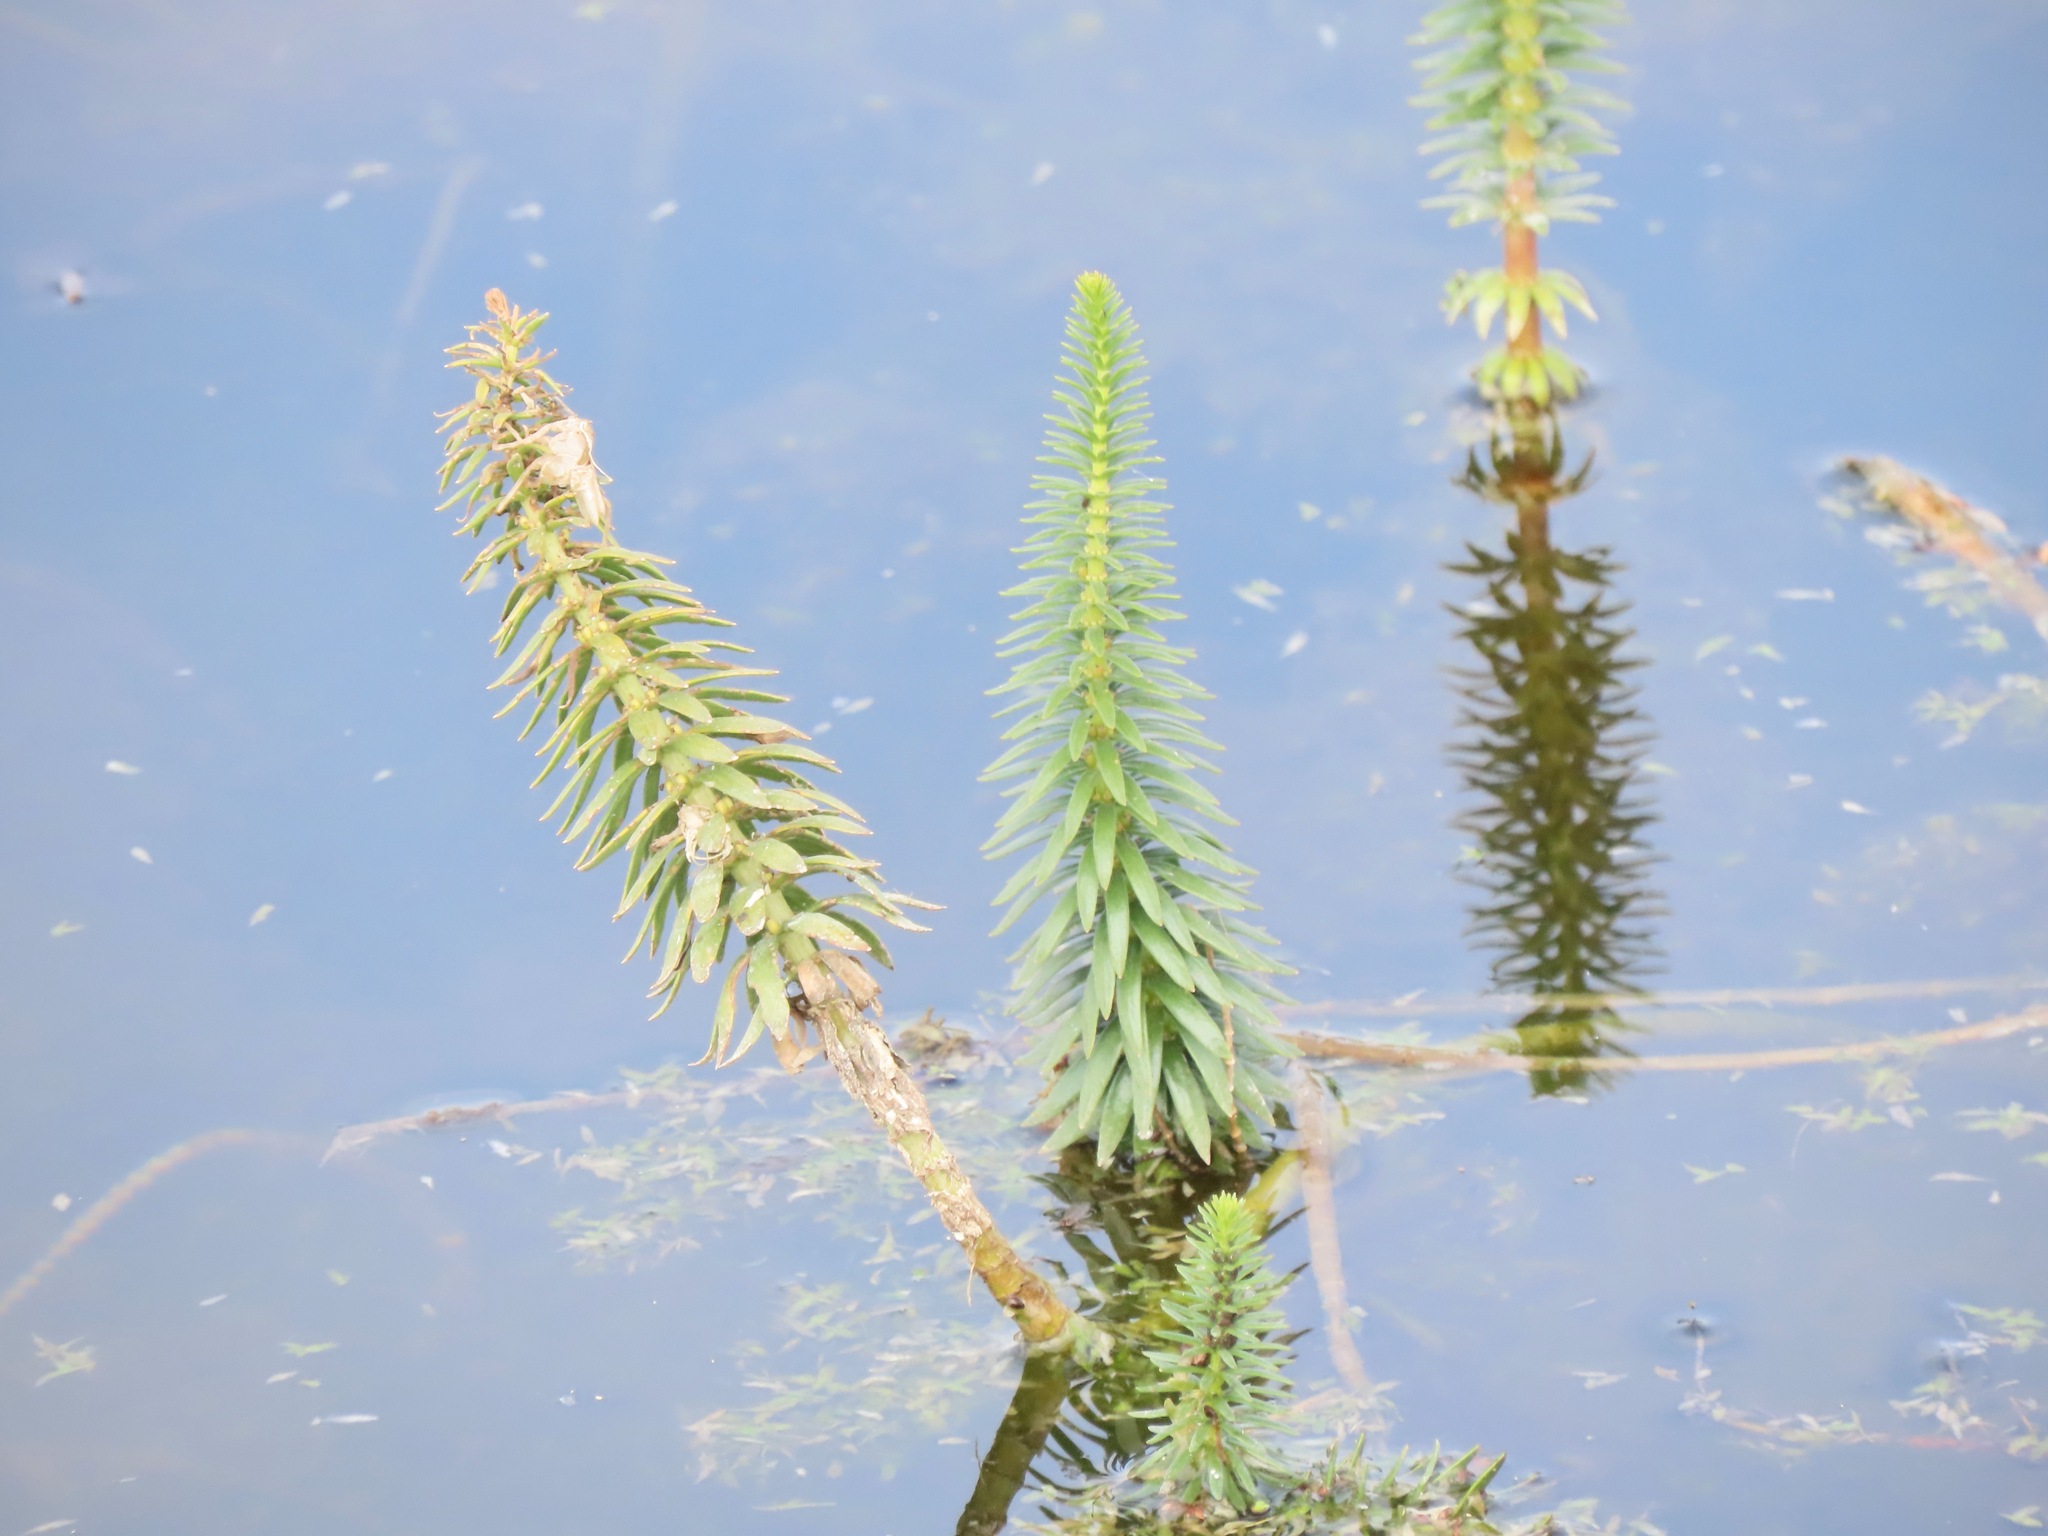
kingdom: Plantae
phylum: Tracheophyta
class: Magnoliopsida
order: Lamiales
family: Plantaginaceae
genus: Hippuris
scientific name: Hippuris vulgaris
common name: Mare's-tail
